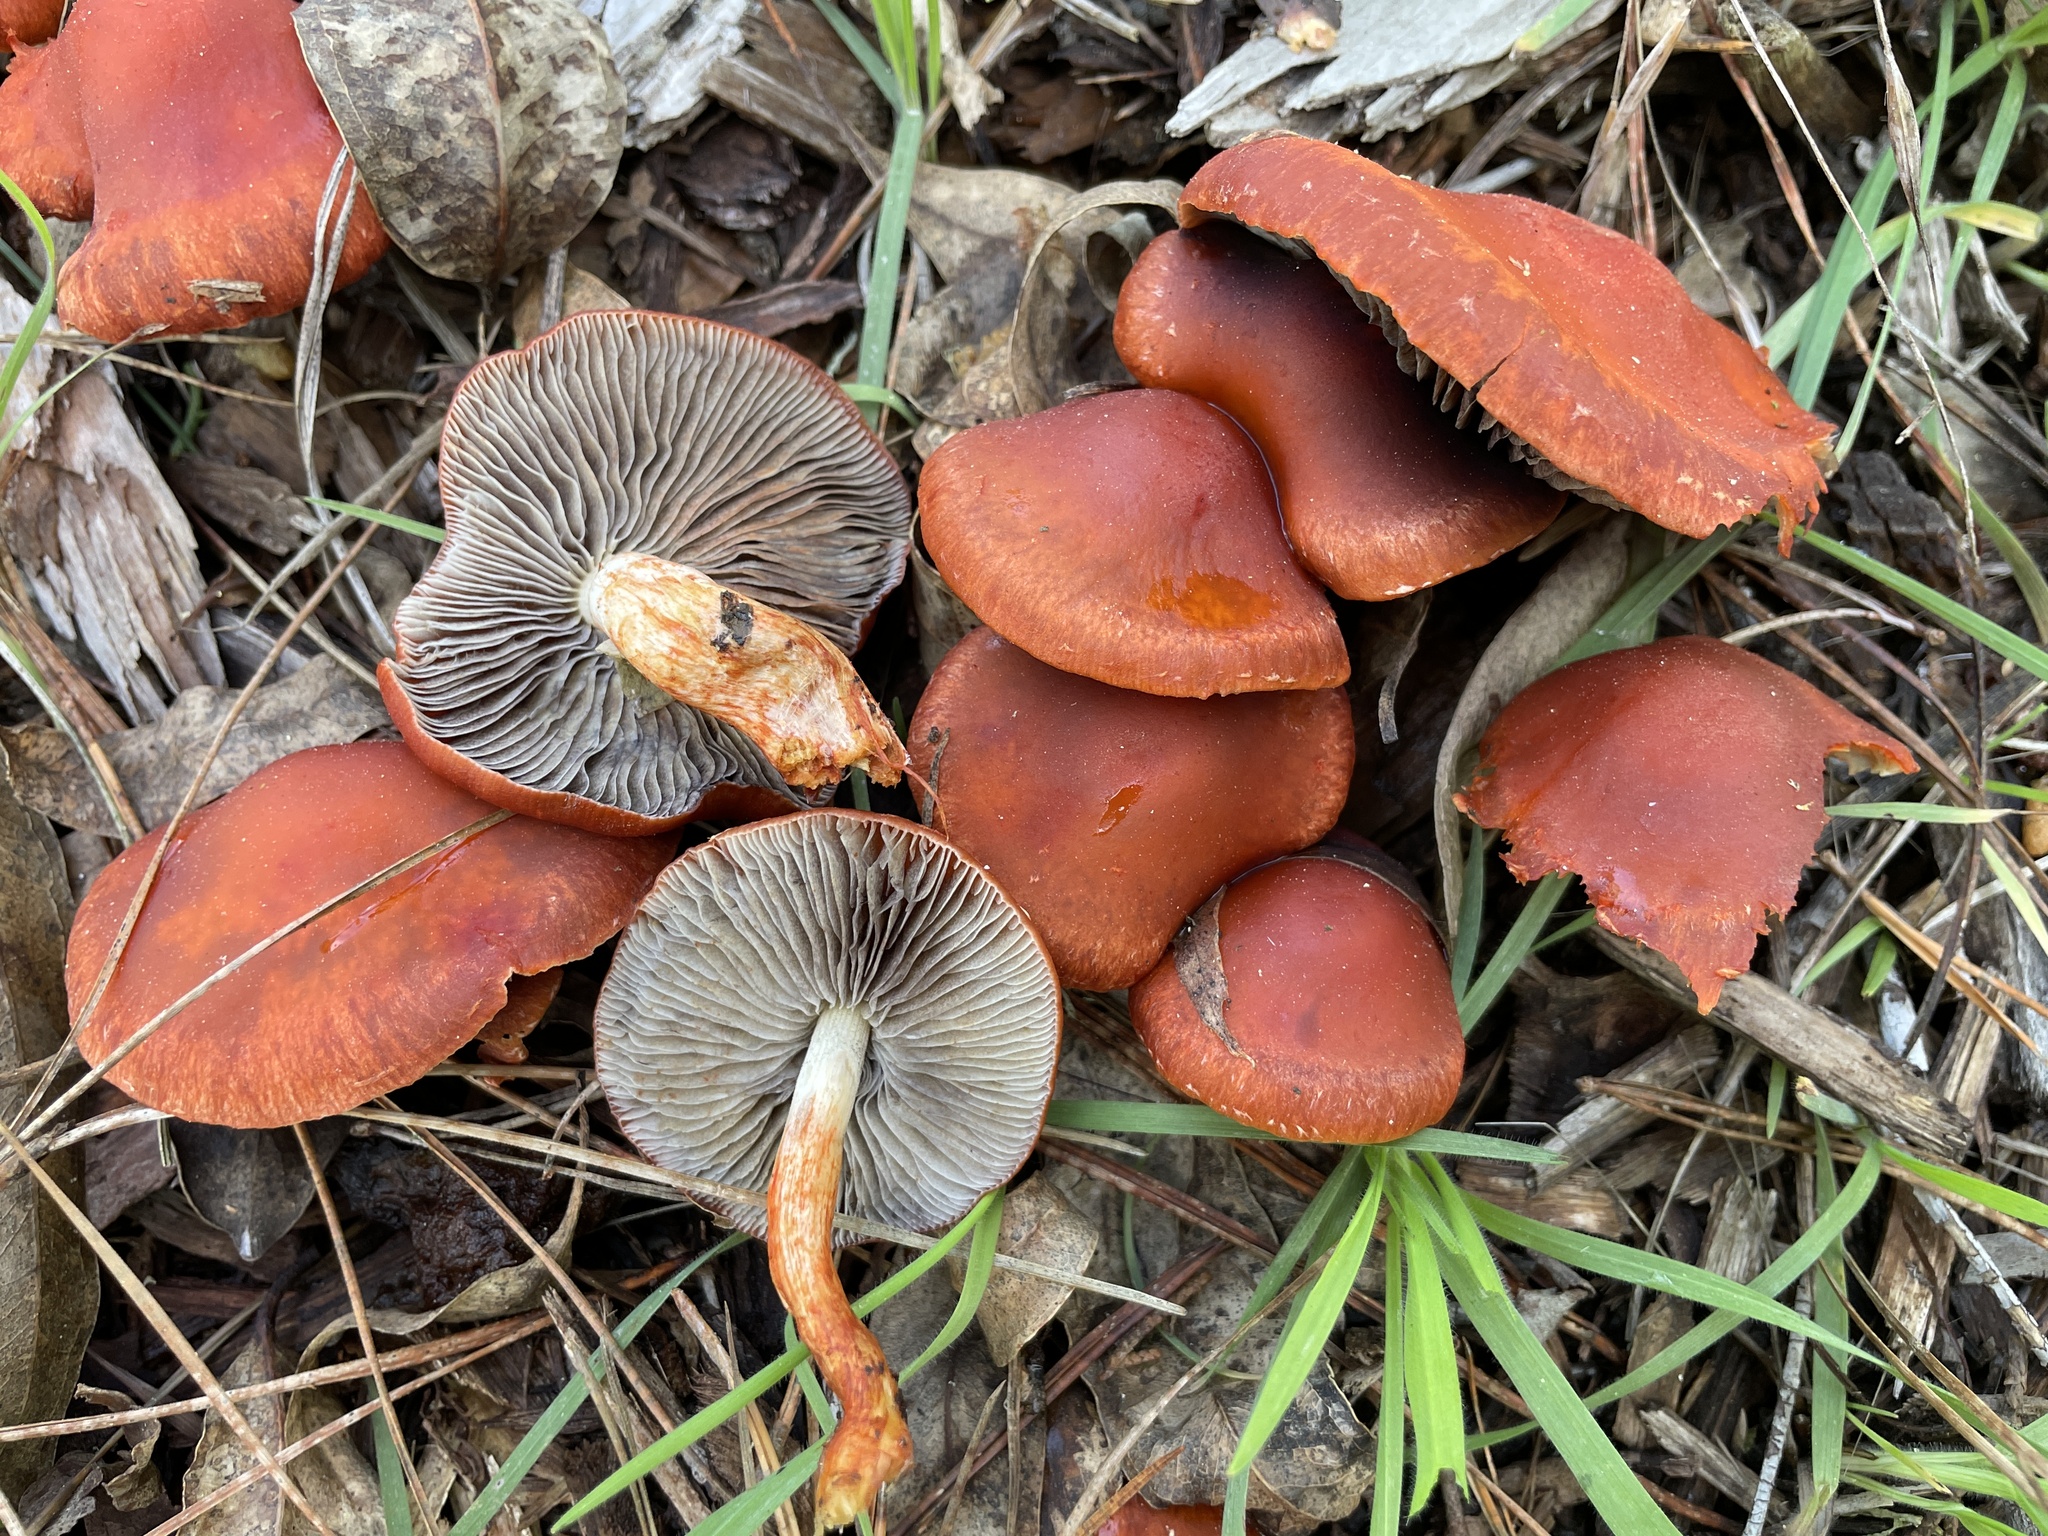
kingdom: Fungi
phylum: Basidiomycota
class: Agaricomycetes
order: Agaricales
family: Strophariaceae
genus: Leratiomyces
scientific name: Leratiomyces ceres
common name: Redlead roundhead
